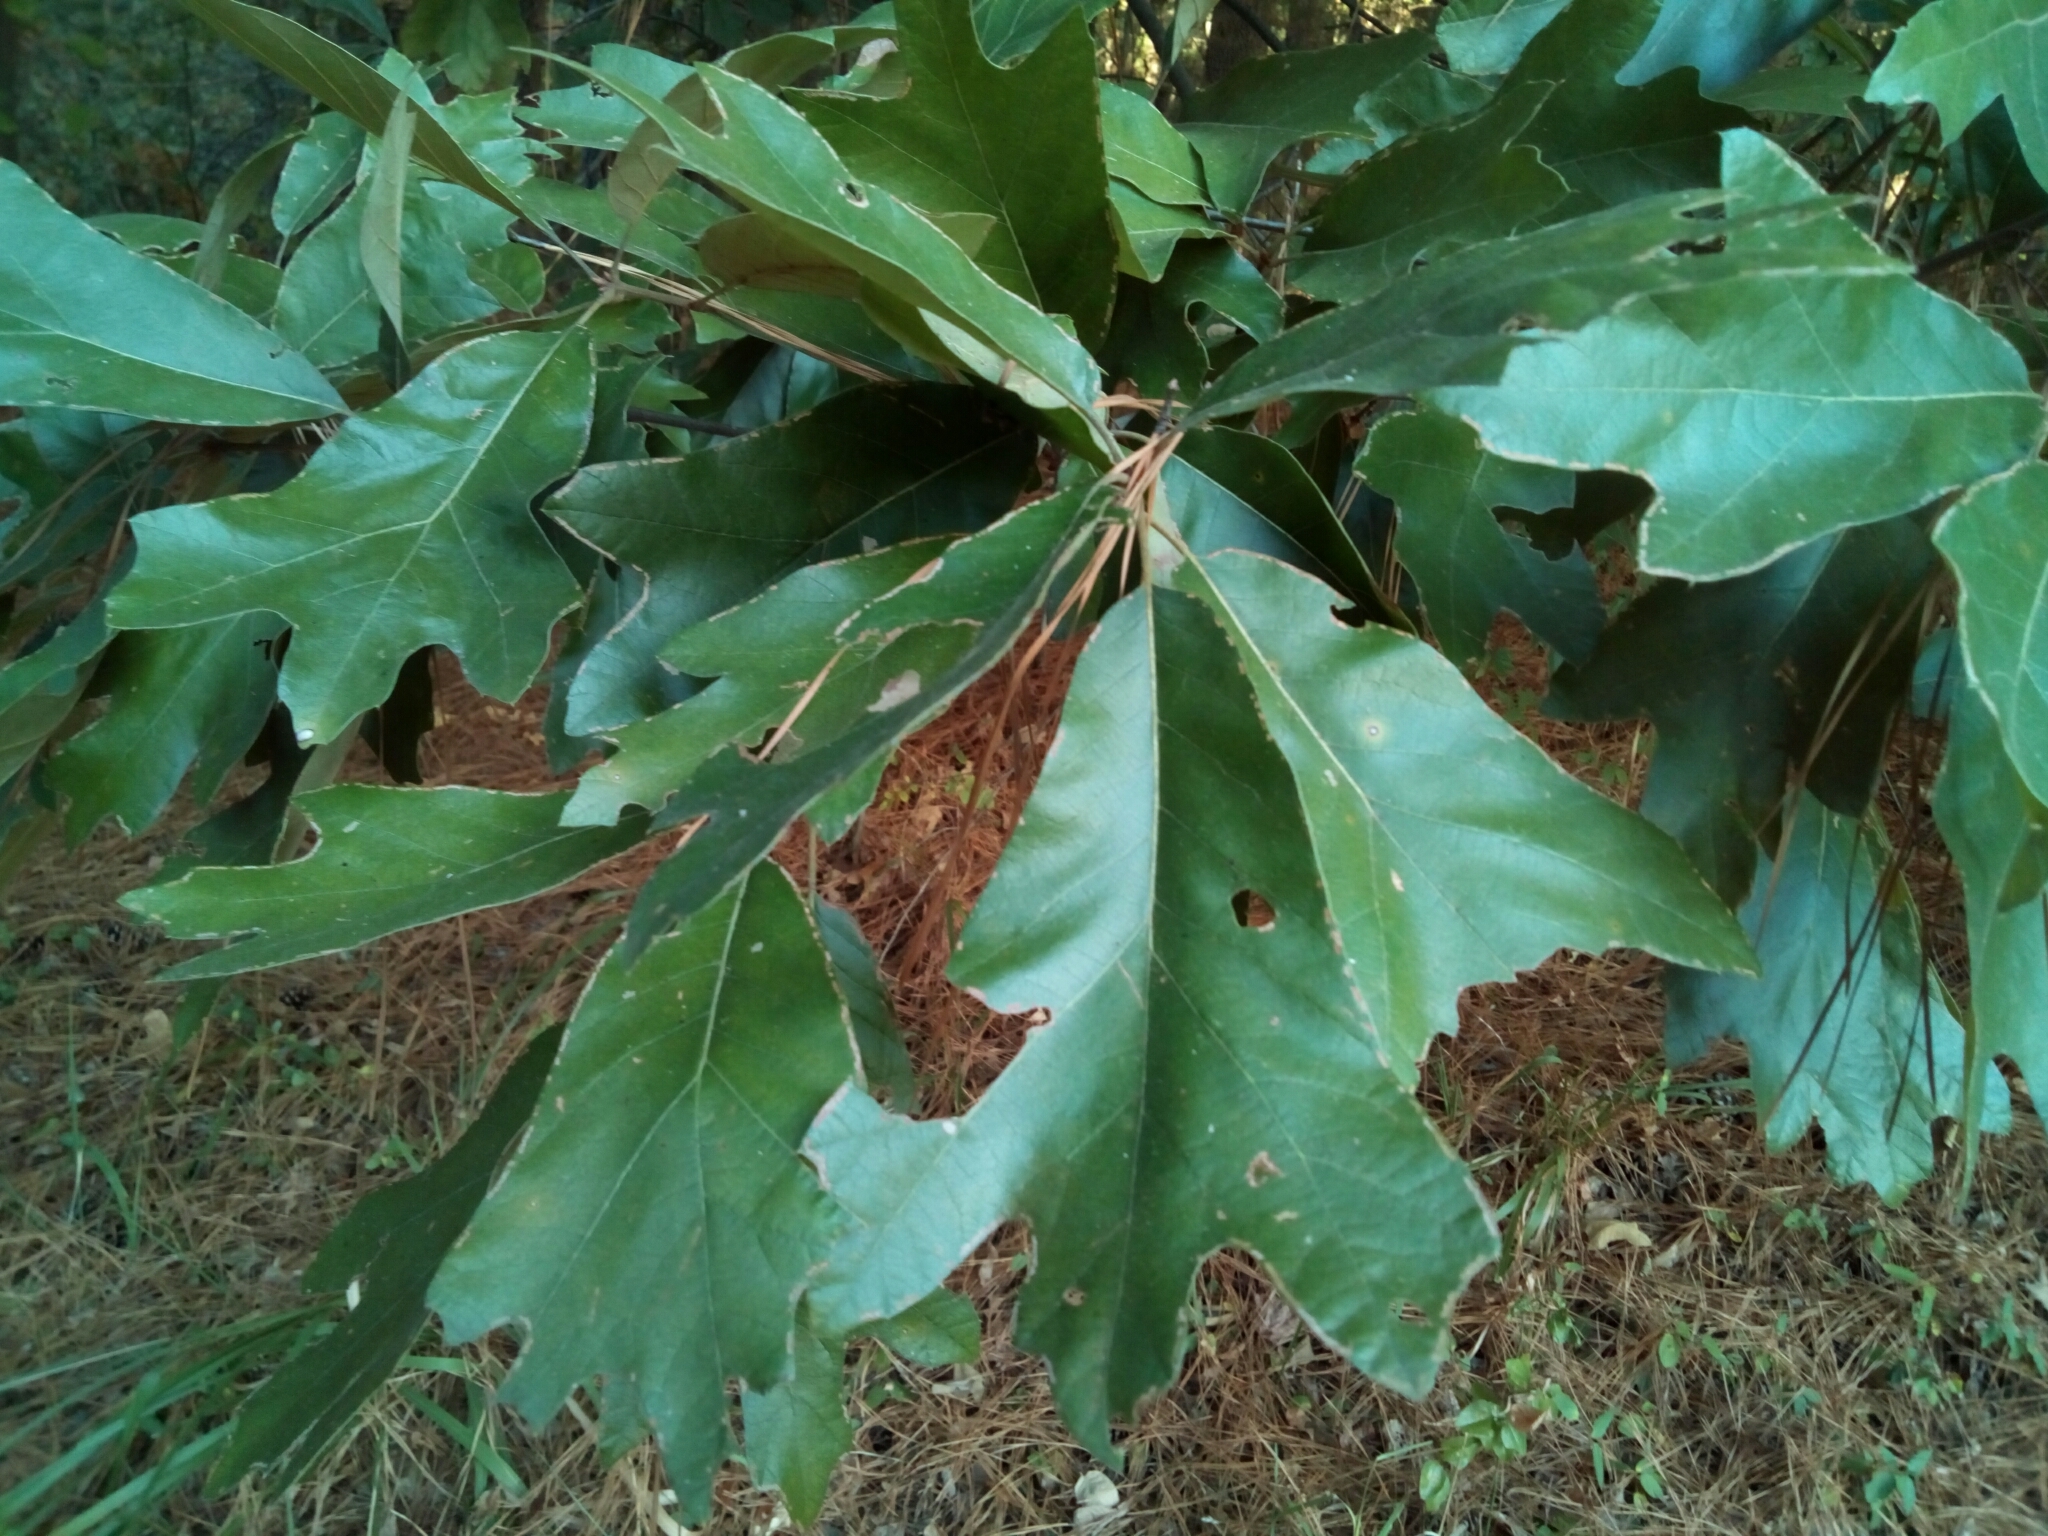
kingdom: Plantae
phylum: Tracheophyta
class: Magnoliopsida
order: Fagales
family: Fagaceae
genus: Quercus
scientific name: Quercus falcata
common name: Southern red oak
